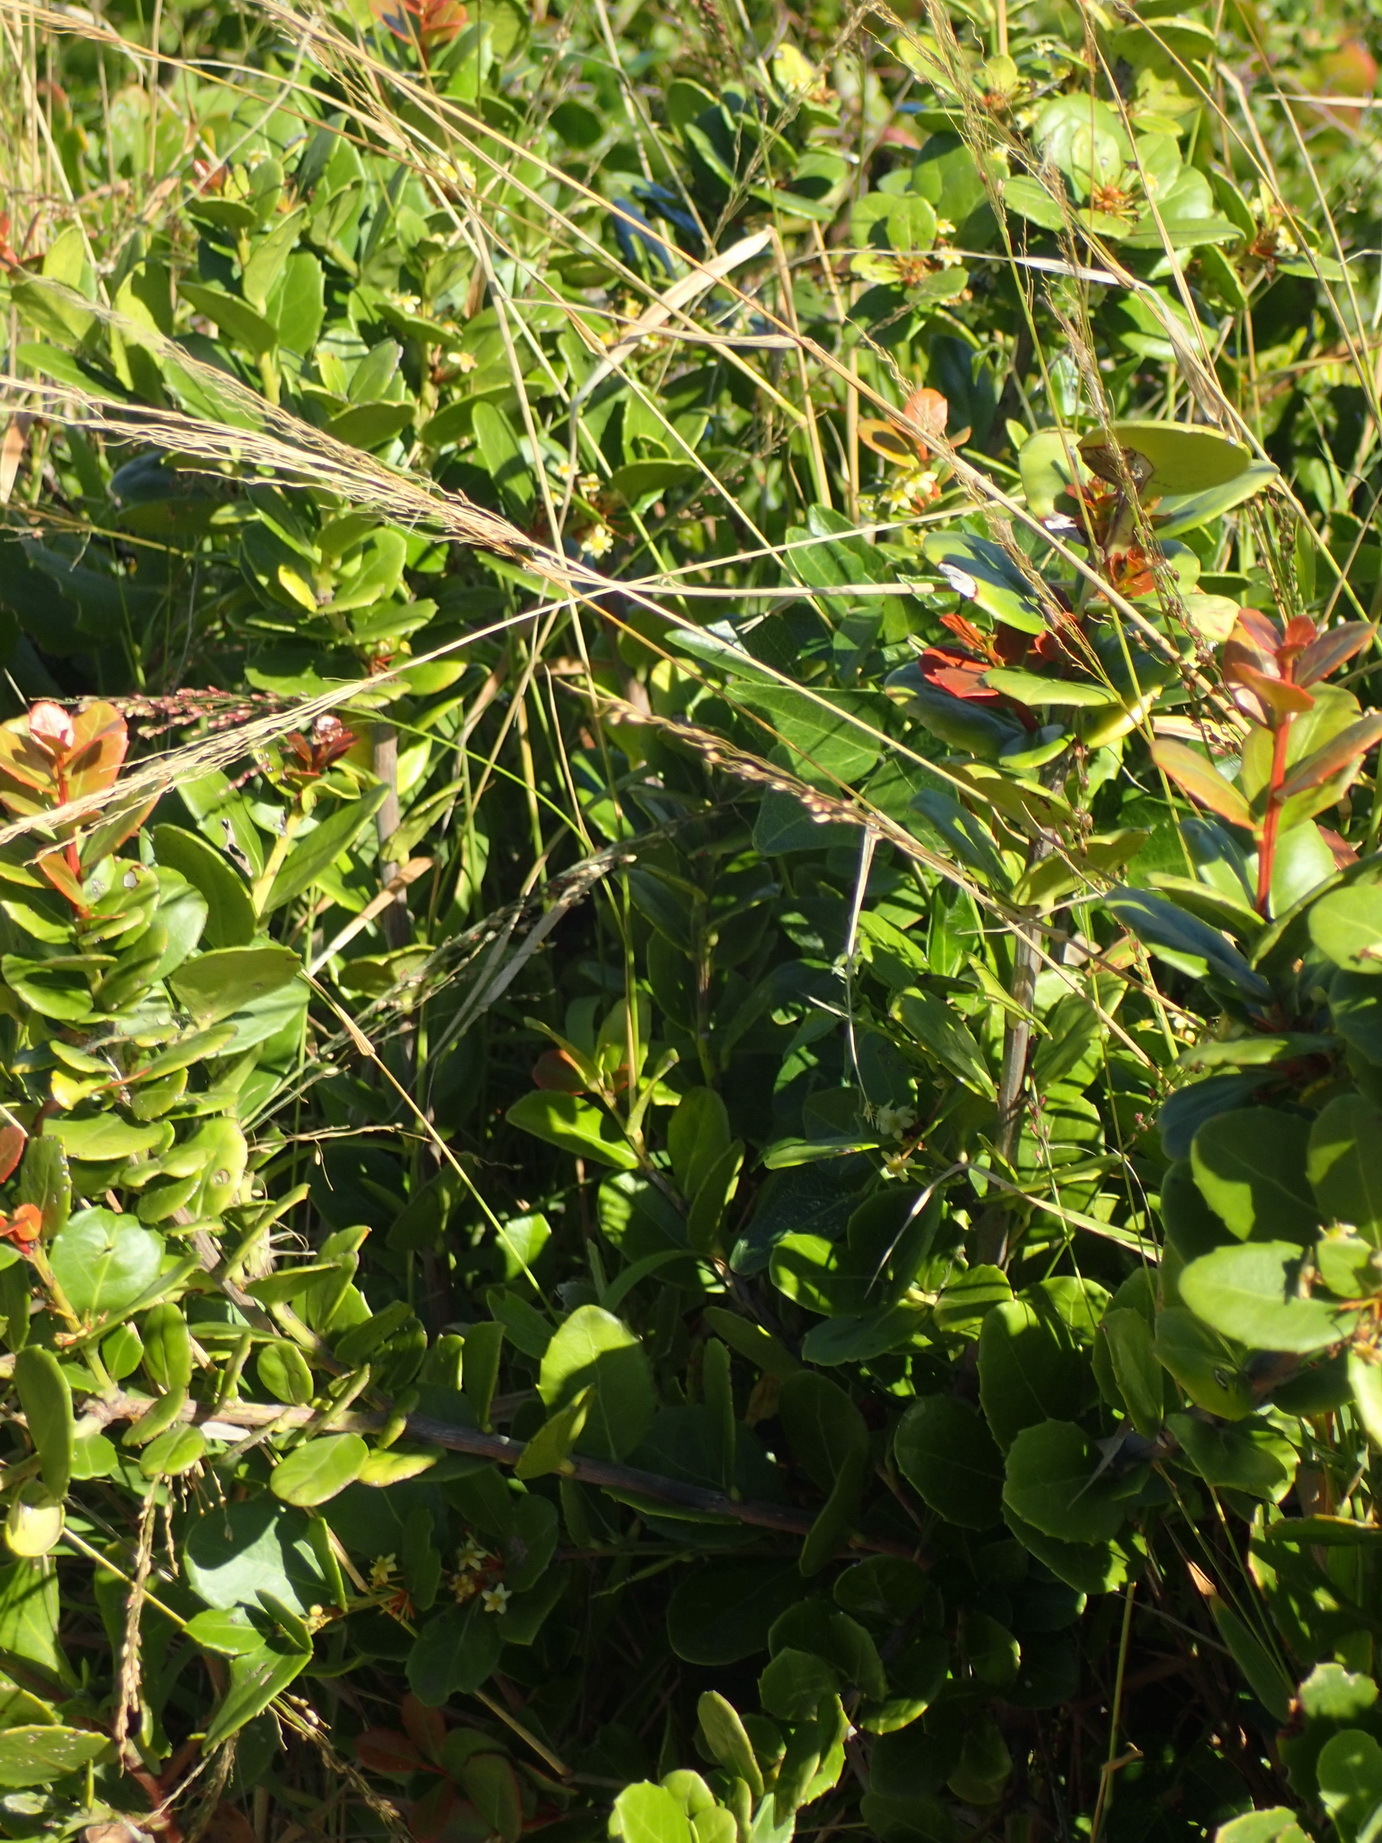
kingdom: Plantae
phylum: Tracheophyta
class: Magnoliopsida
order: Celastrales
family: Celastraceae
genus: Gymnosporia
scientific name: Gymnosporia procumbens
